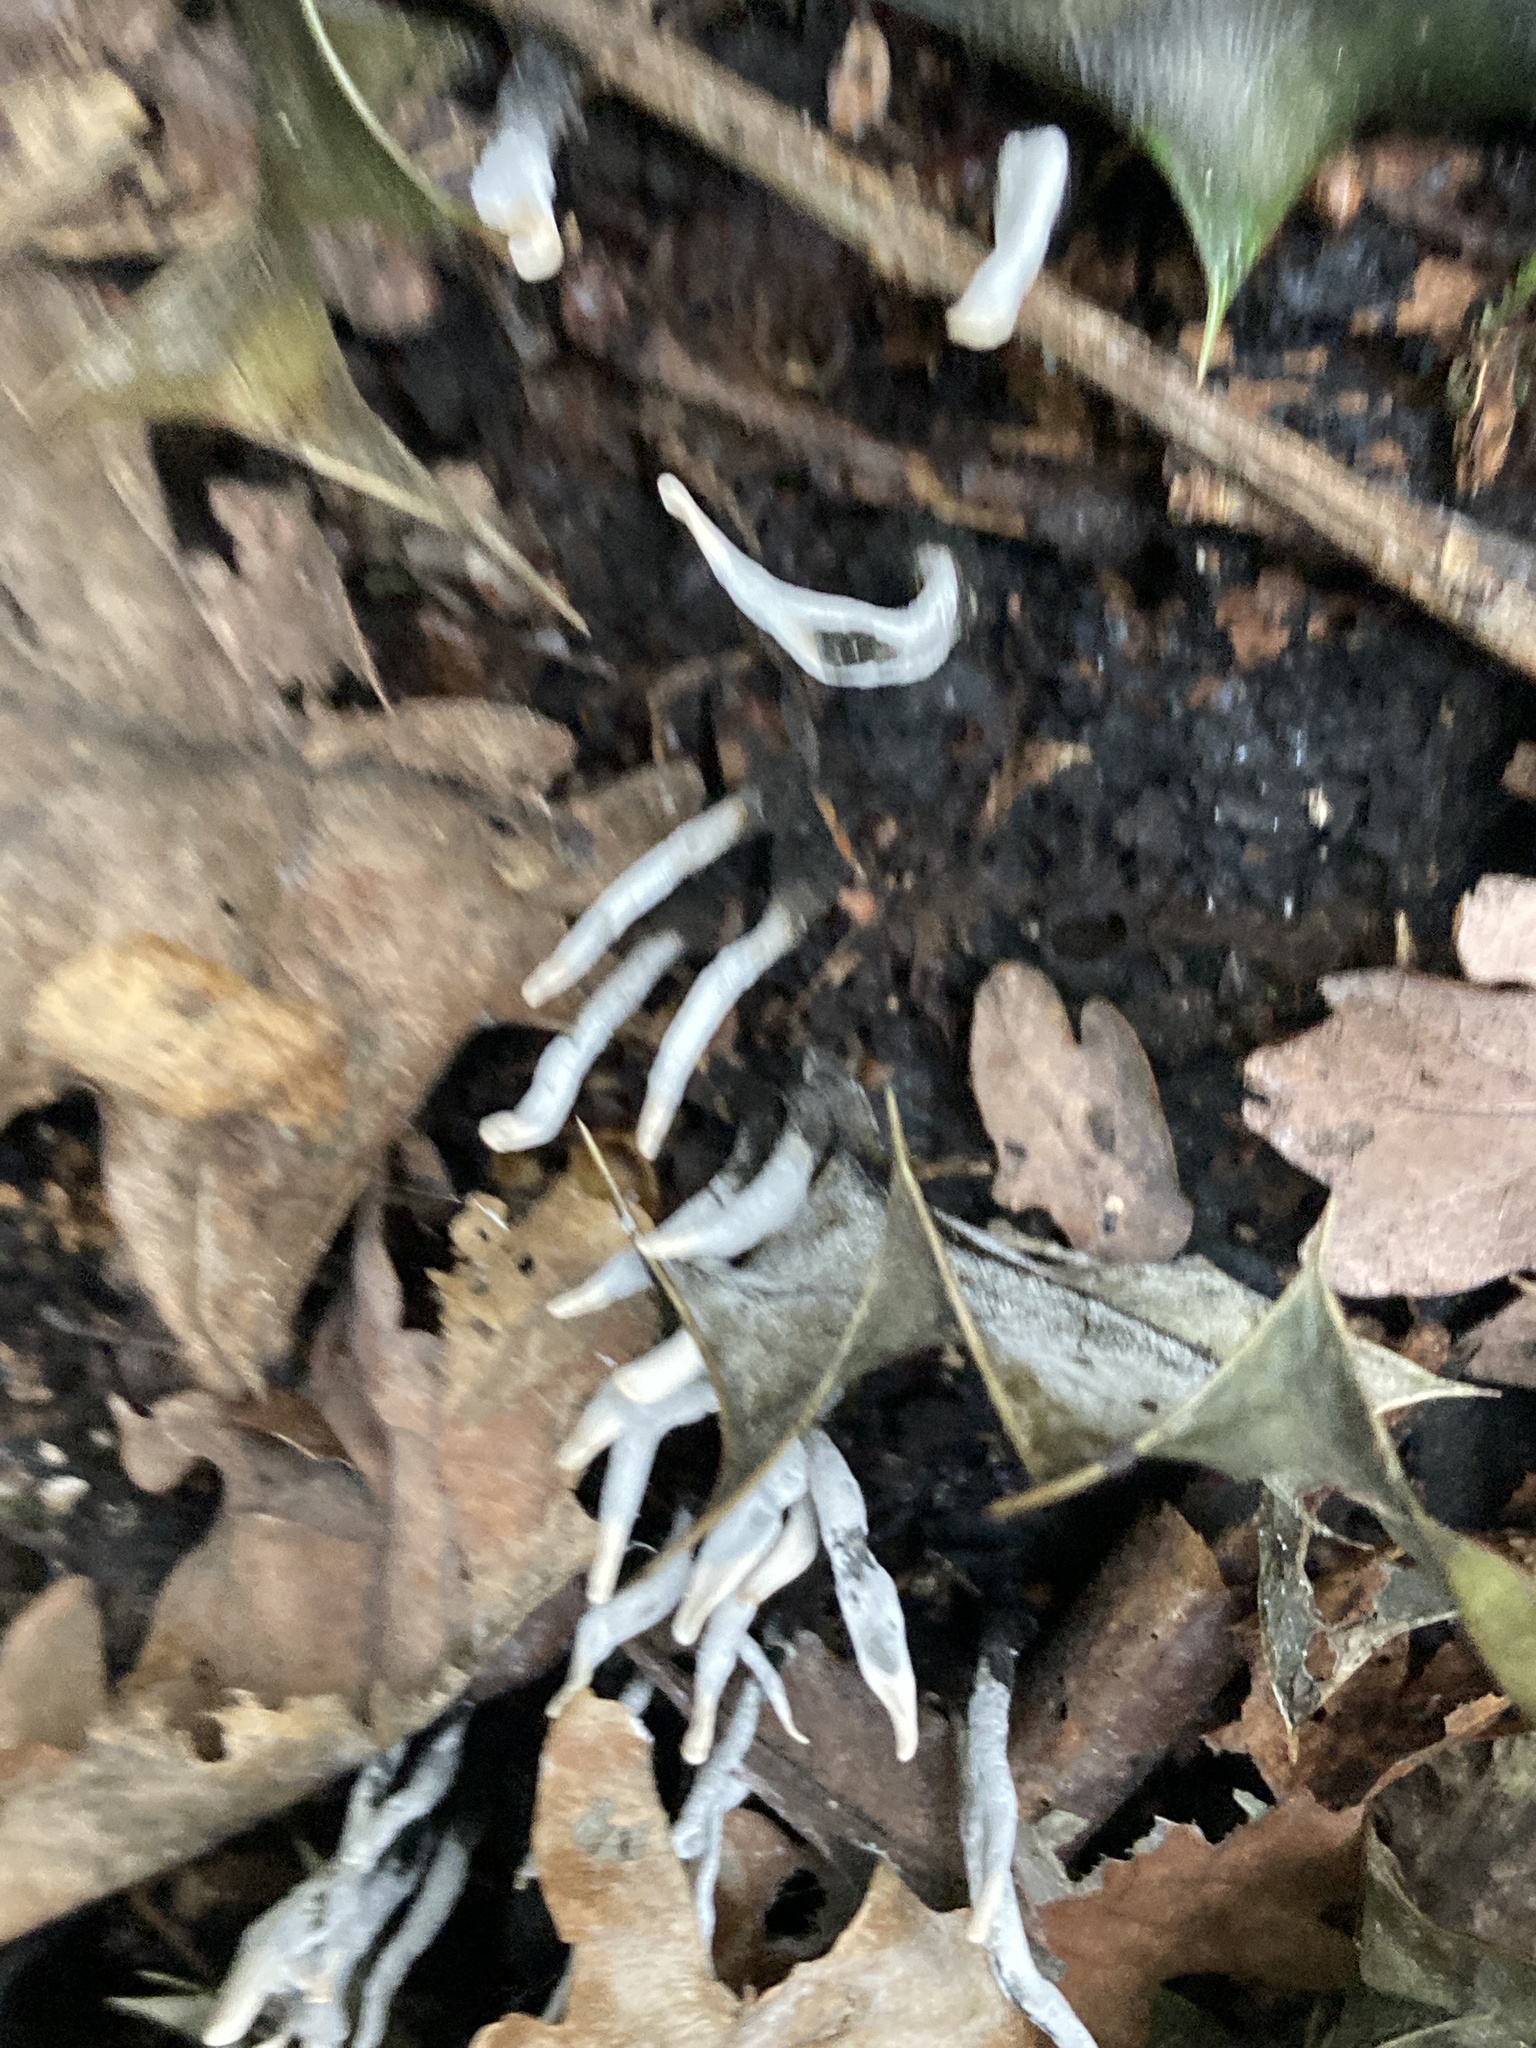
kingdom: Fungi
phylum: Ascomycota
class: Sordariomycetes
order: Xylariales
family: Xylariaceae
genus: Xylaria
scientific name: Xylaria hypoxylon
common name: Candle-snuff fungus
